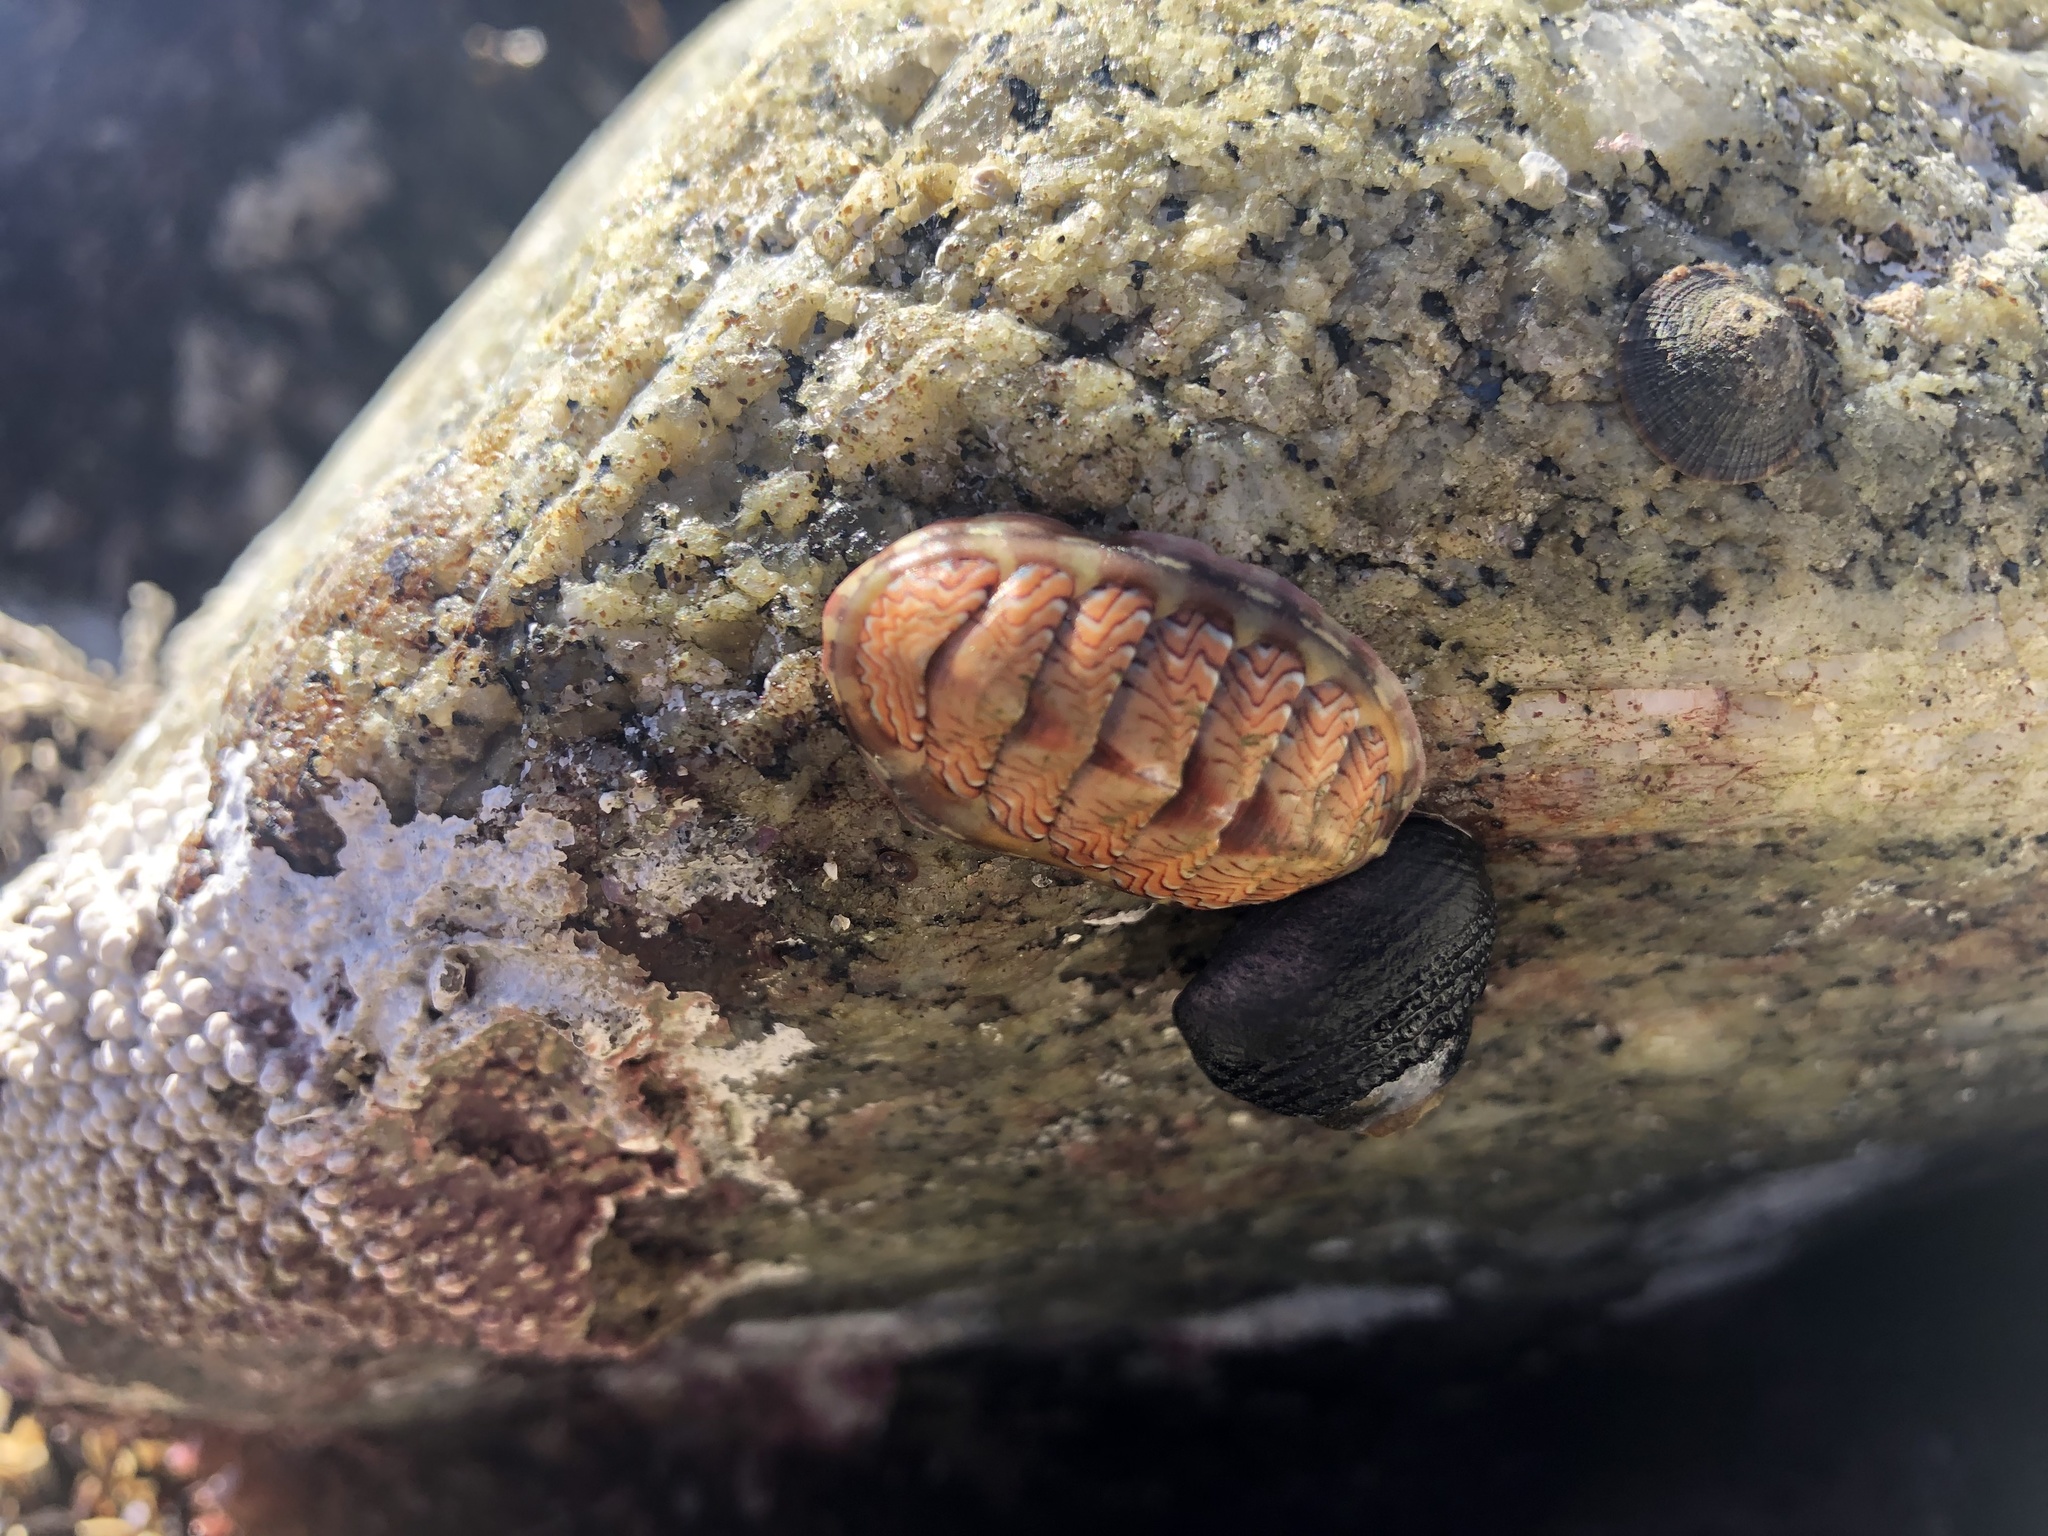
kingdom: Animalia
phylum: Mollusca
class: Polyplacophora
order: Chitonida
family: Tonicellidae
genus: Tonicella
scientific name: Tonicella lokii
